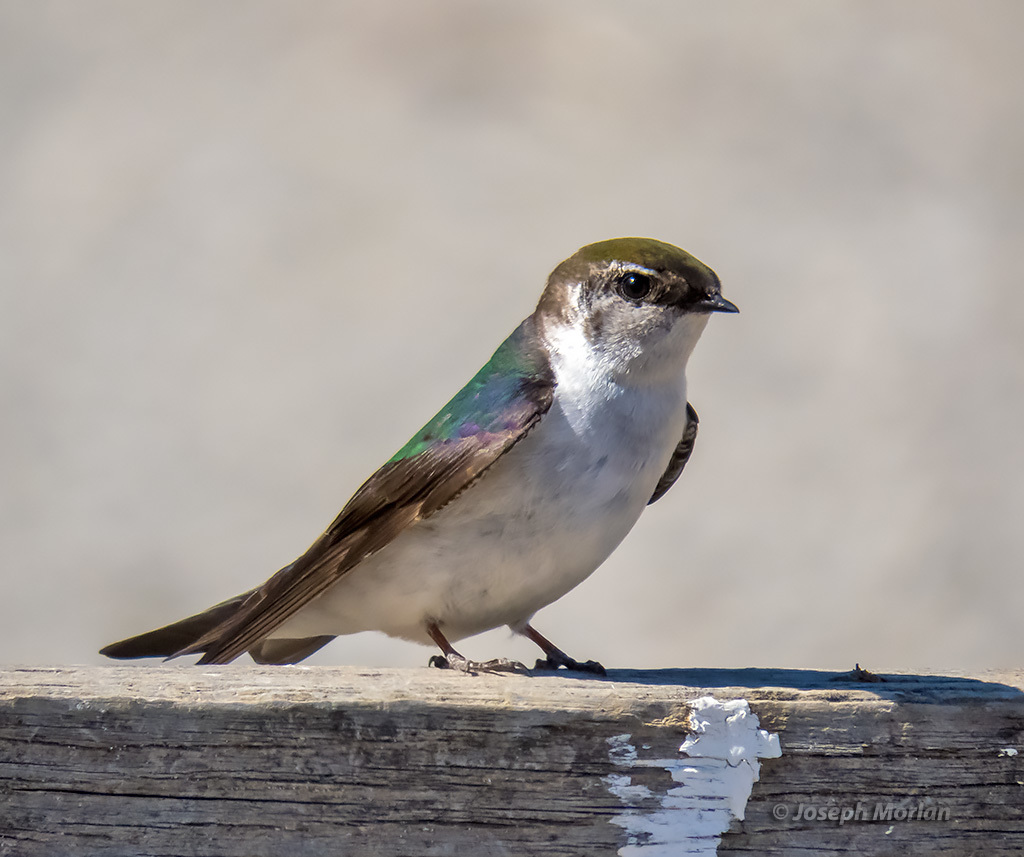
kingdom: Animalia
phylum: Chordata
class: Aves
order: Passeriformes
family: Hirundinidae
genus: Tachycineta
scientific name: Tachycineta thalassina
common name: Violet-green swallow
